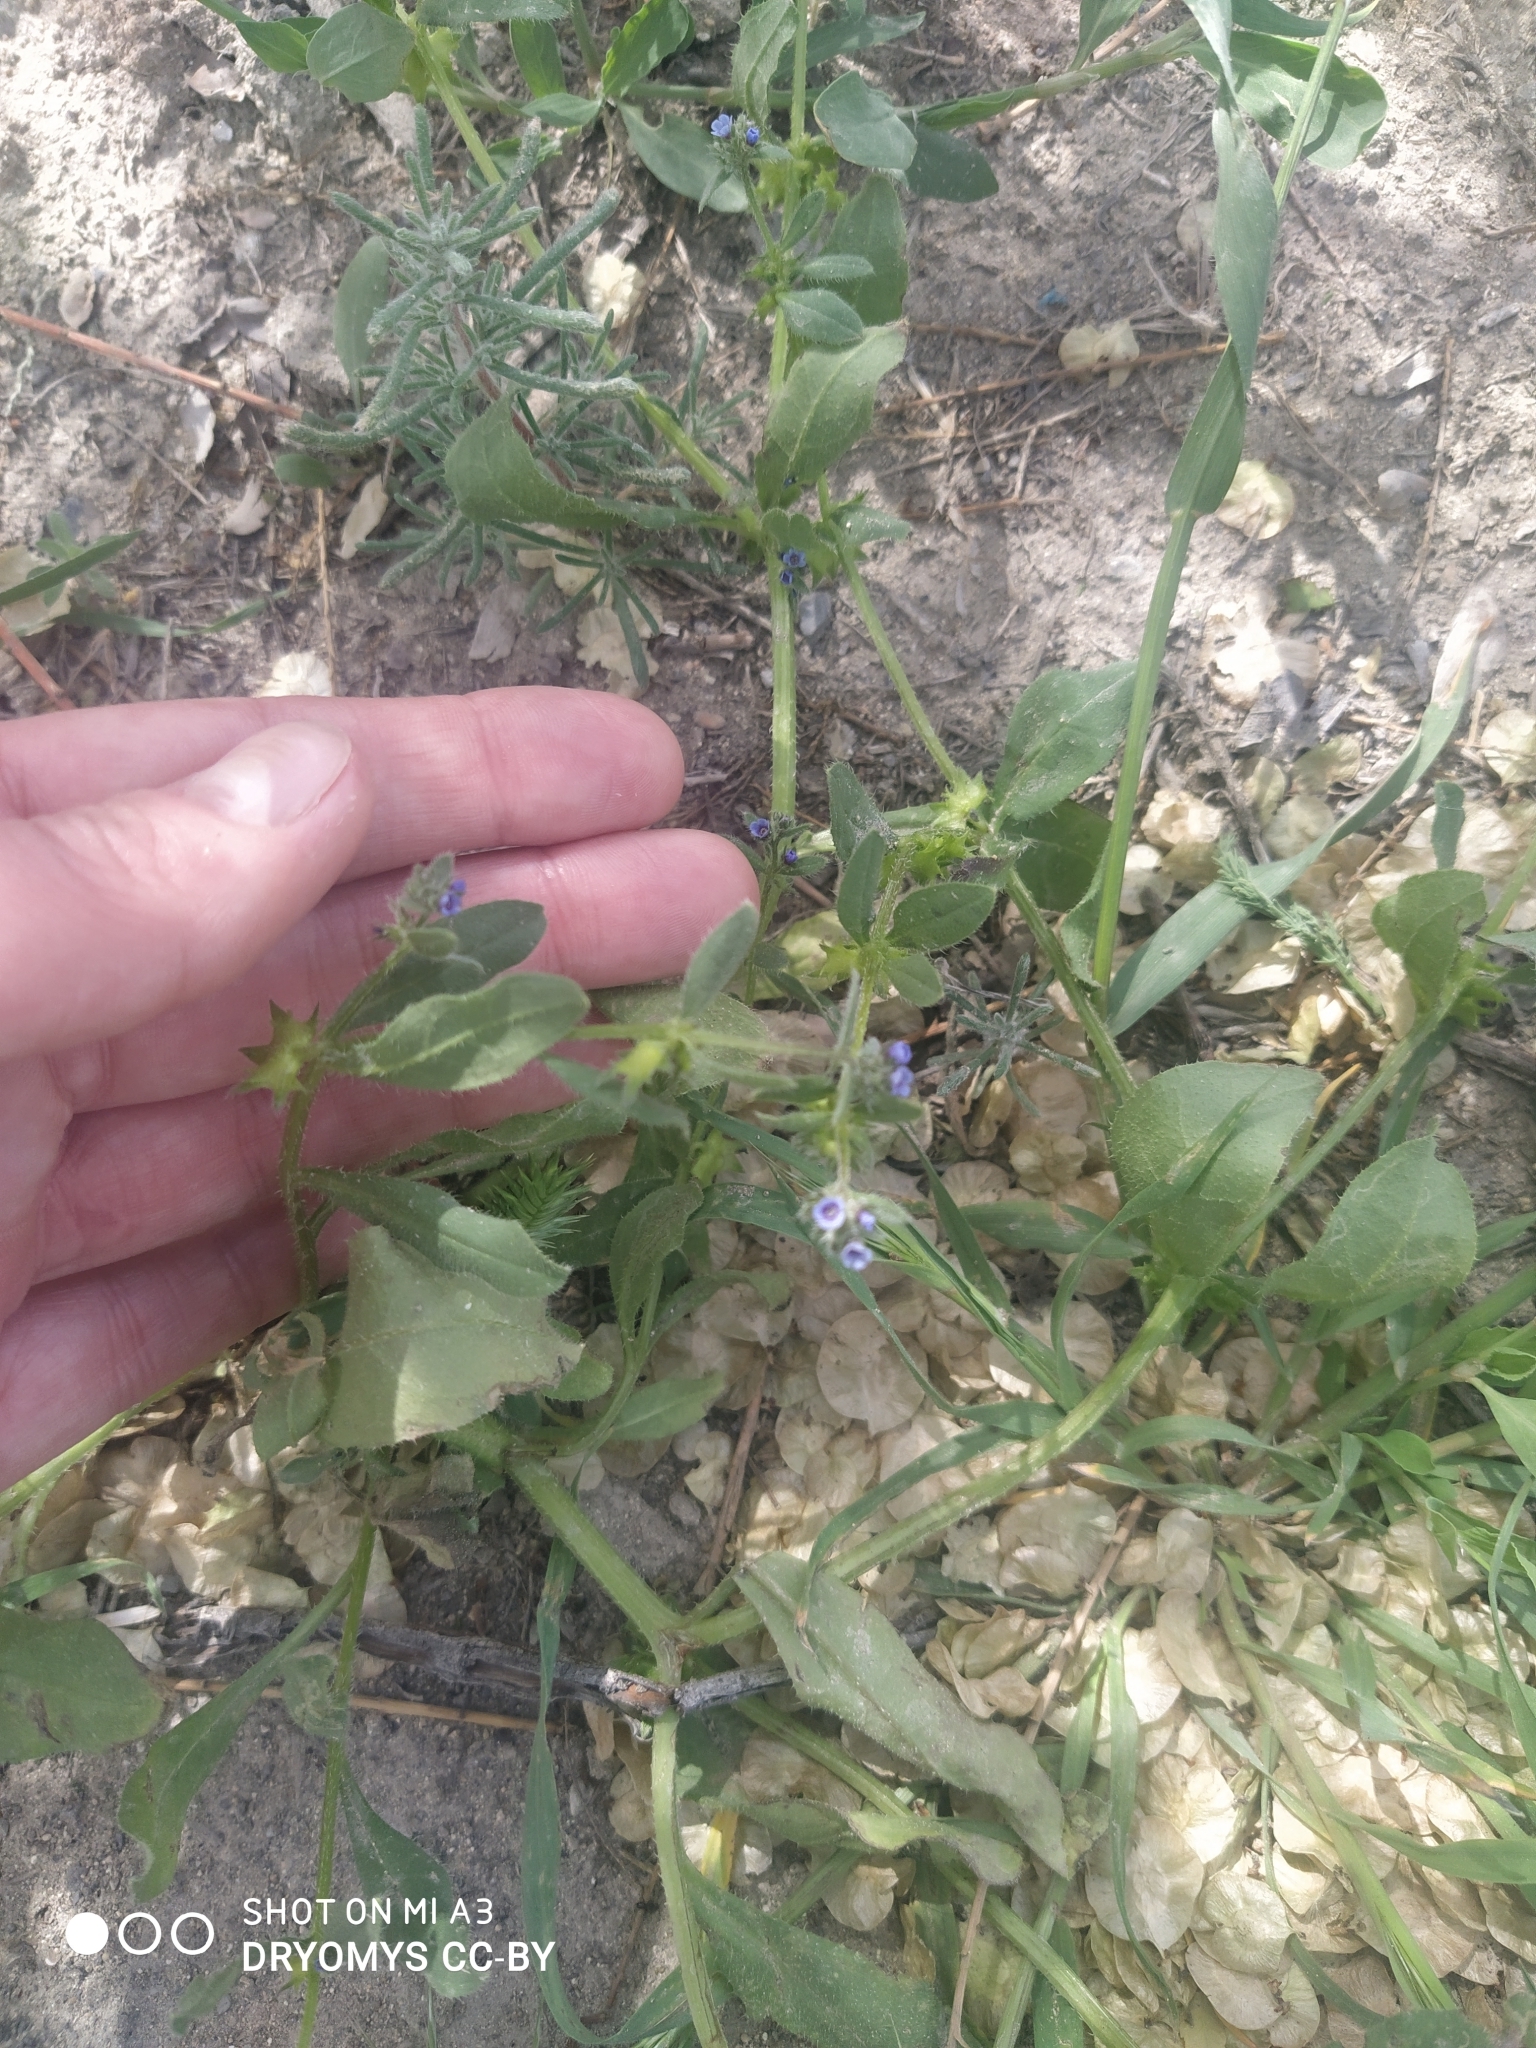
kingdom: Plantae
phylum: Tracheophyta
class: Magnoliopsida
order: Boraginales
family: Boraginaceae
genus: Asperugo
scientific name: Asperugo procumbens
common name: Madwort
